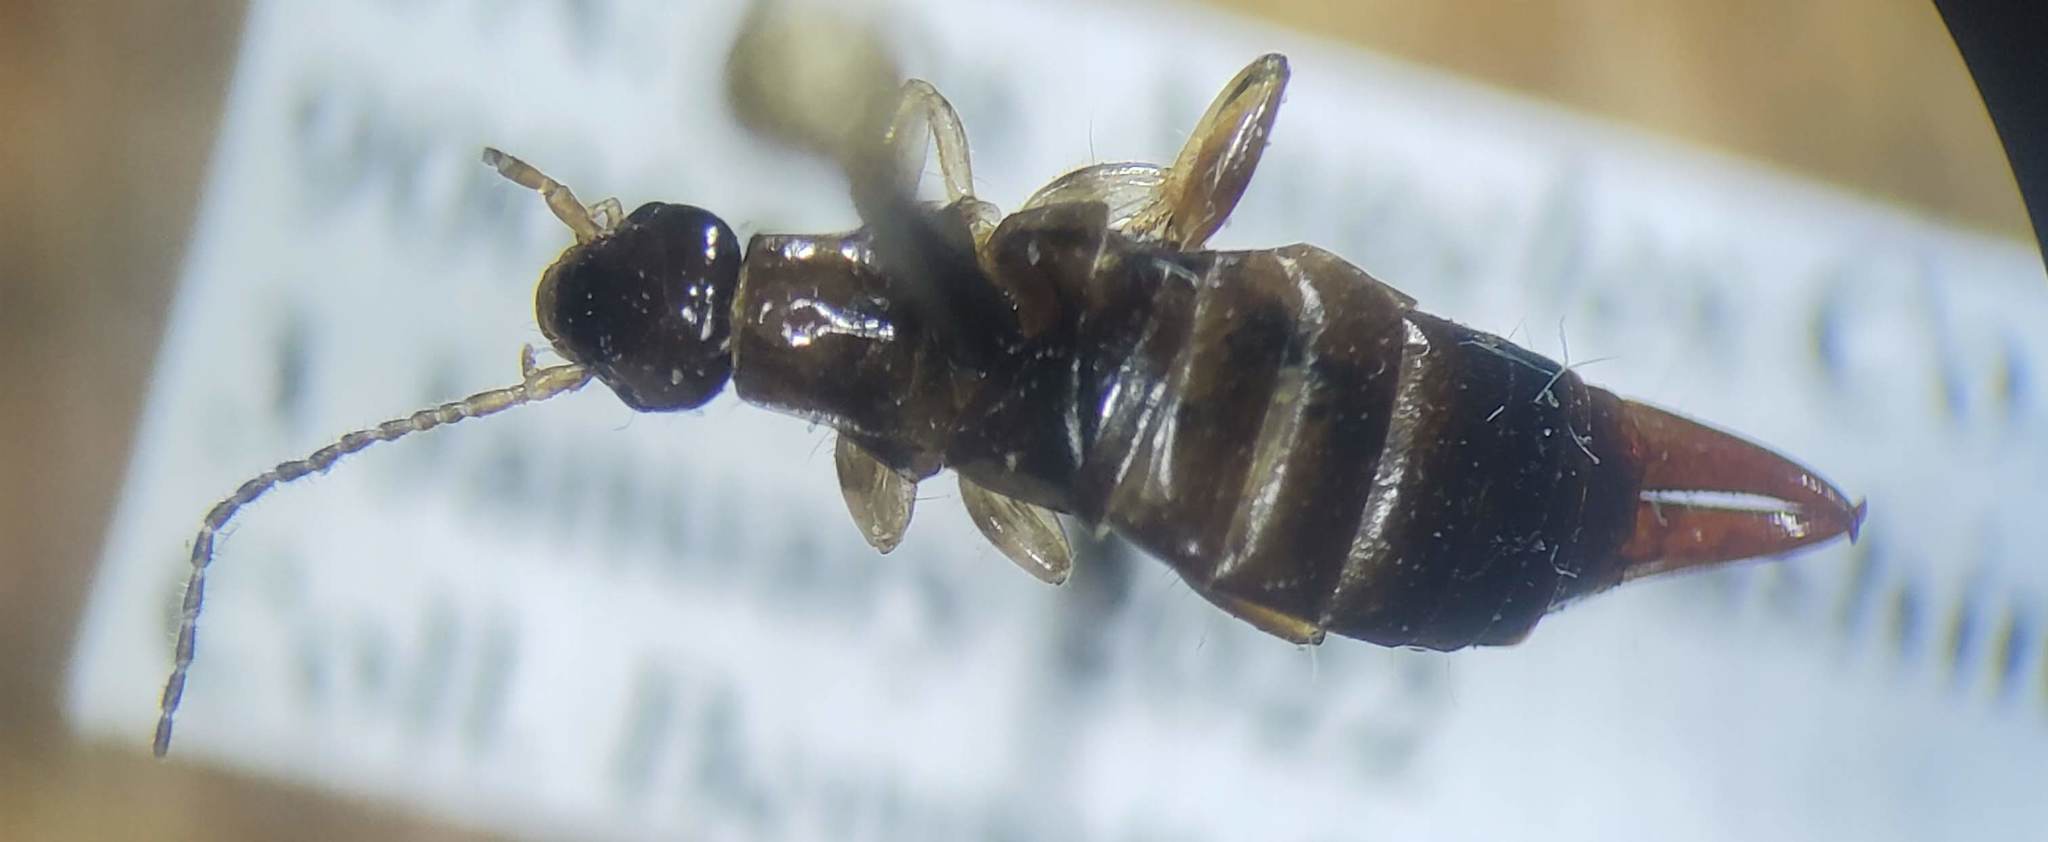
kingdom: Animalia
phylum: Arthropoda
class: Insecta
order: Dermaptera
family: Anisolabididae
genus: Euborellia
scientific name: Euborellia annulipes
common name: Ringlegged earwig
